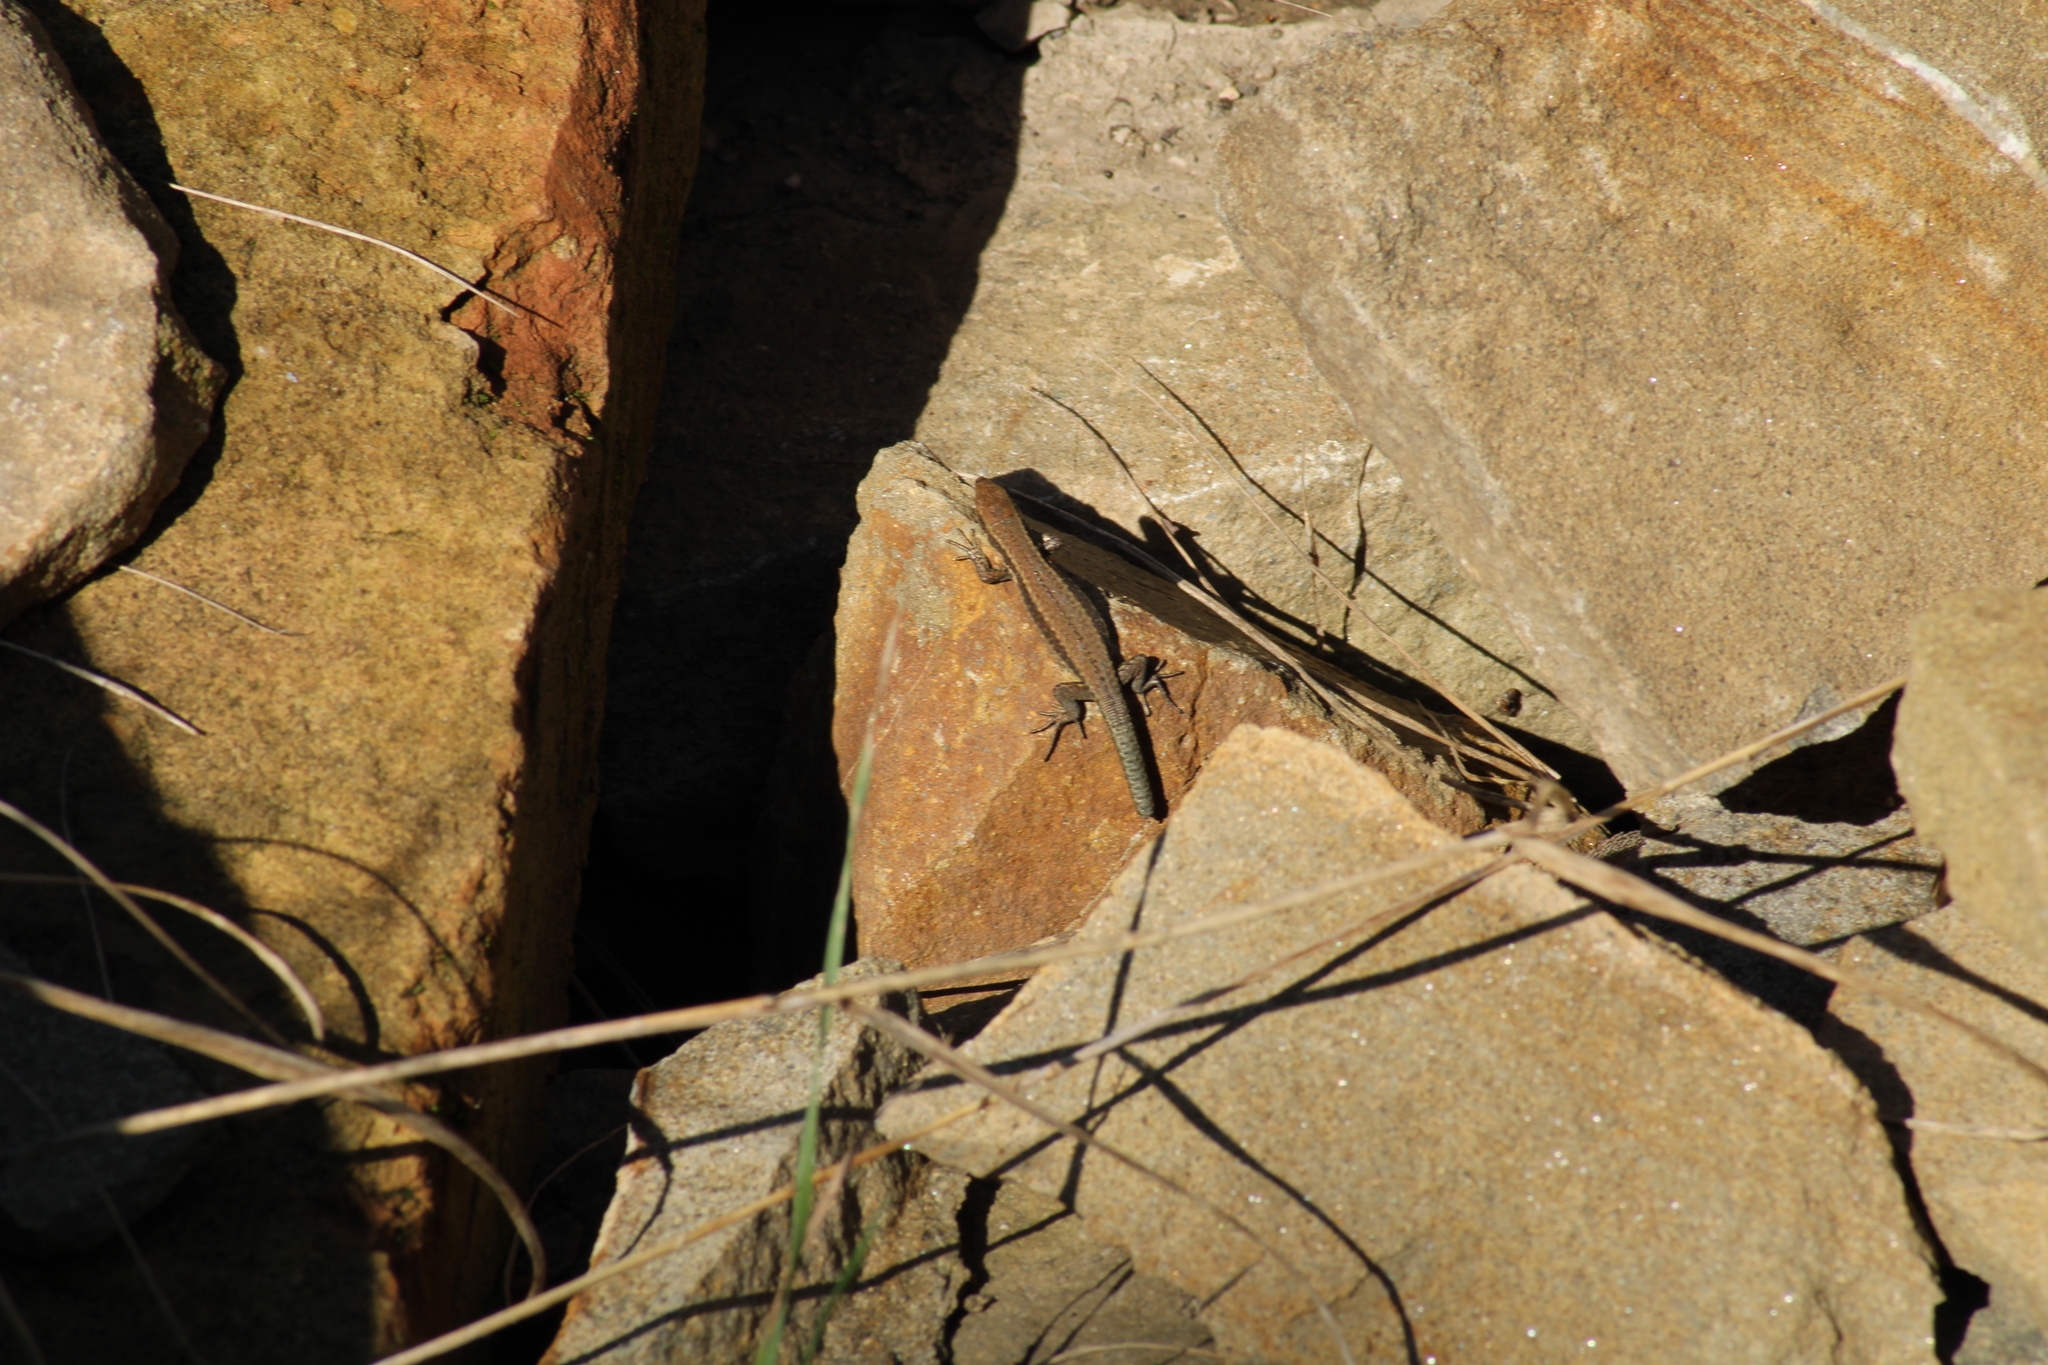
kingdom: Animalia
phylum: Chordata
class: Squamata
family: Lacertidae
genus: Podarcis
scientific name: Podarcis muralis
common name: Common wall lizard
